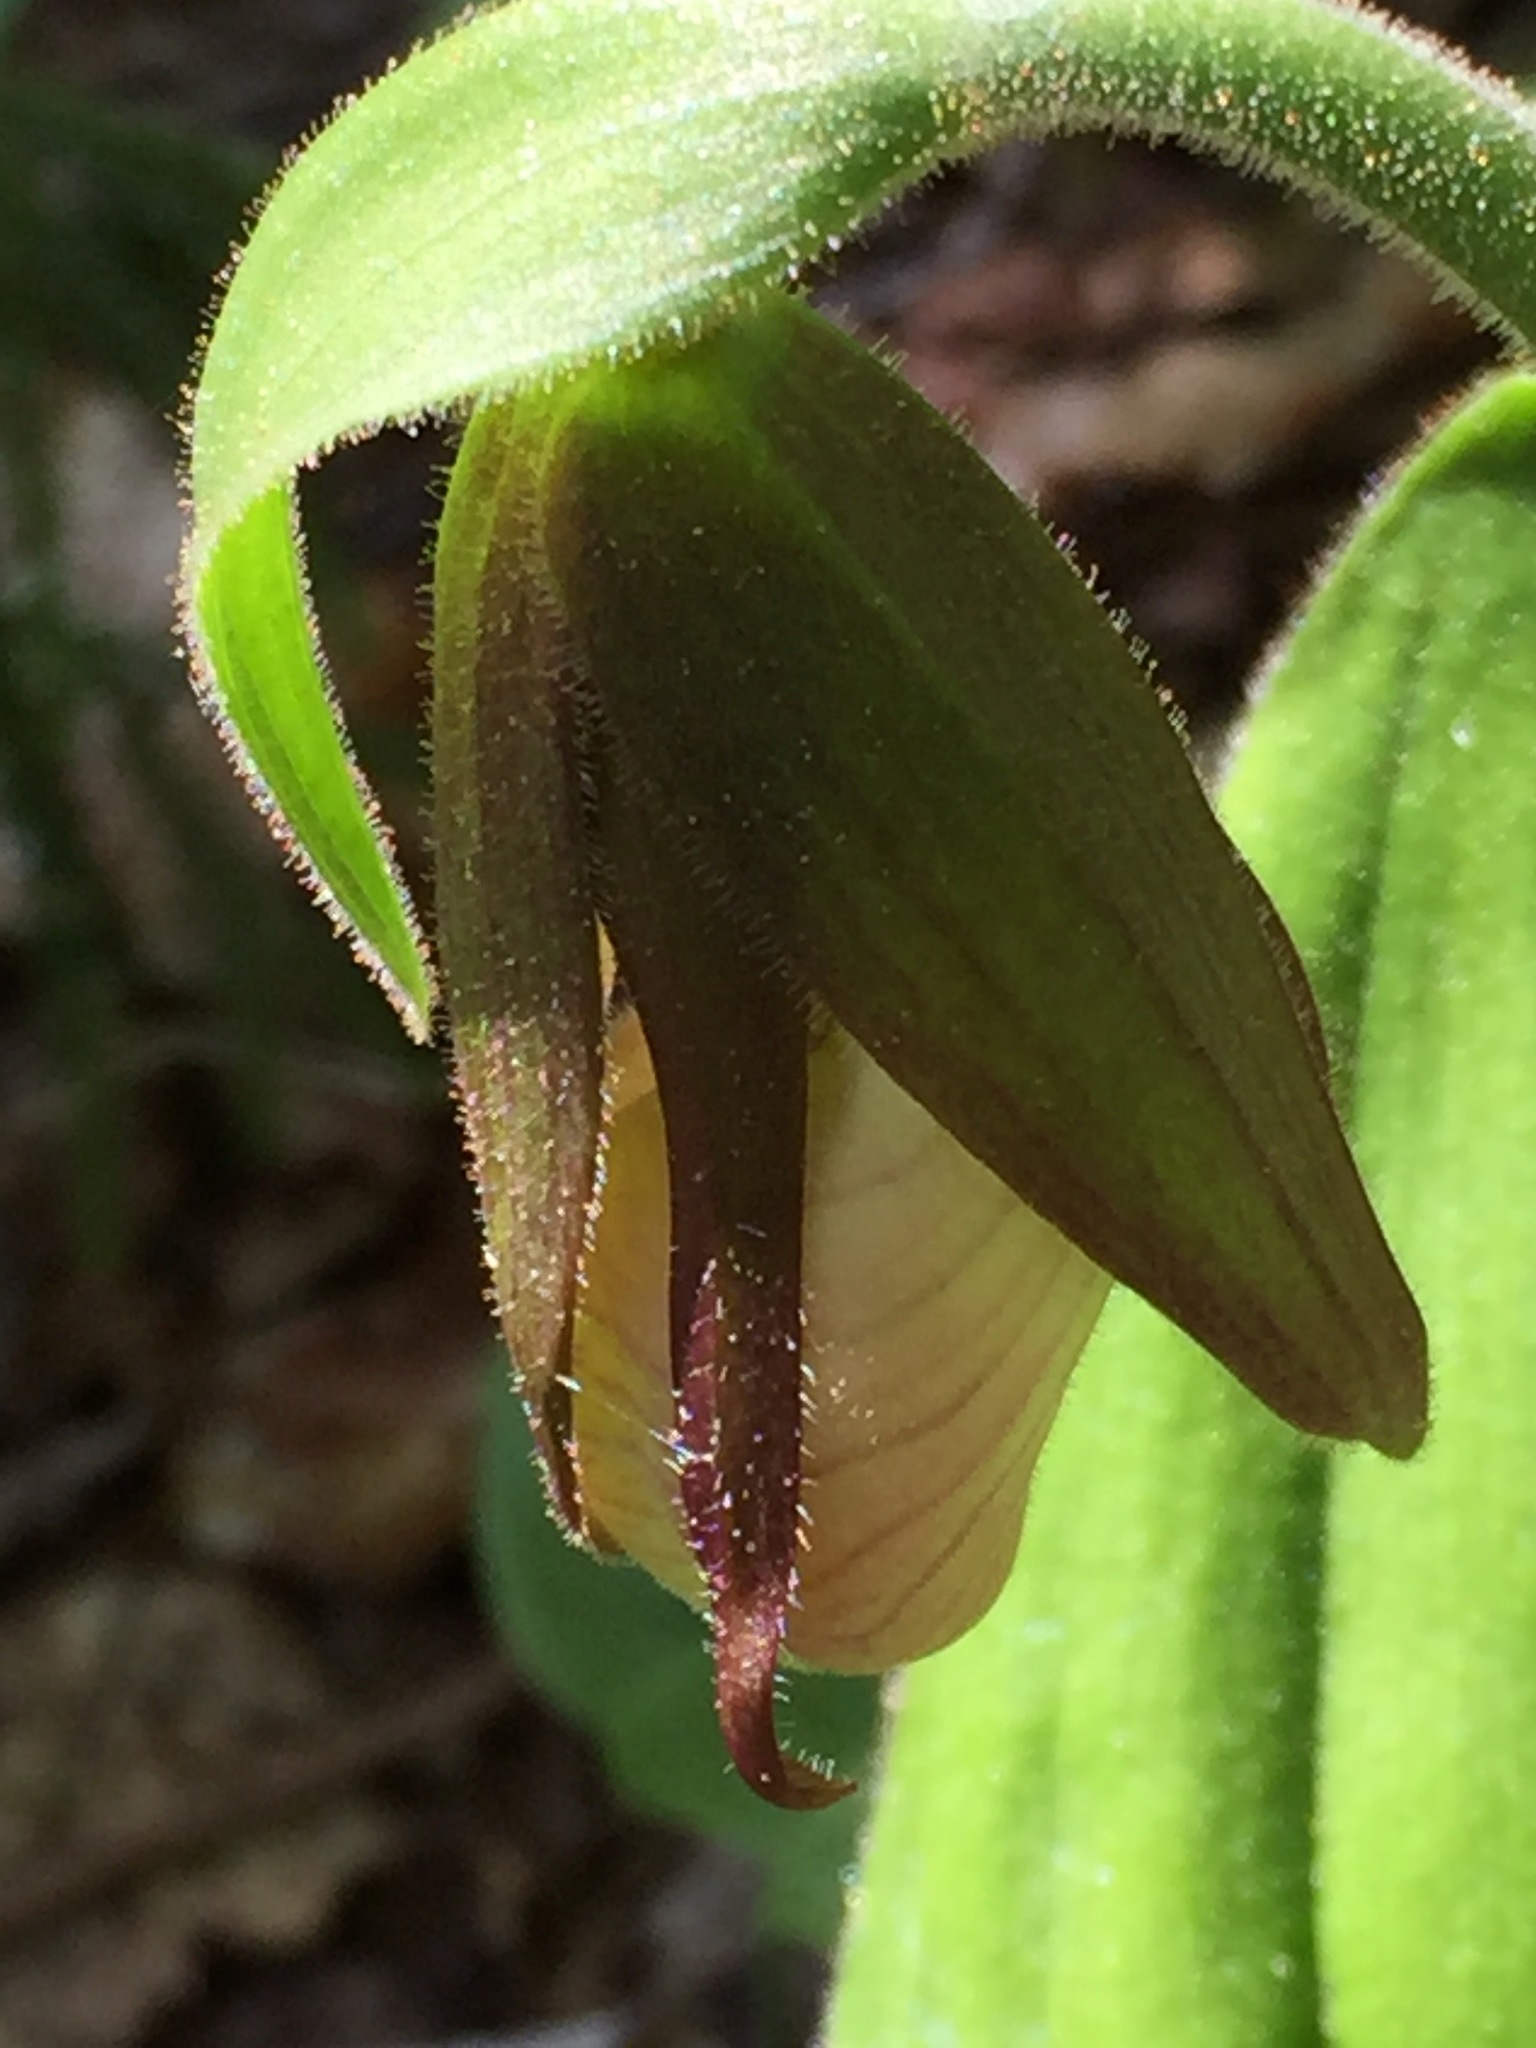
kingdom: Plantae
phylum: Tracheophyta
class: Liliopsida
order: Asparagales
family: Orchidaceae
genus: Cypripedium
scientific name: Cypripedium acaule
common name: Pink lady's-slipper
